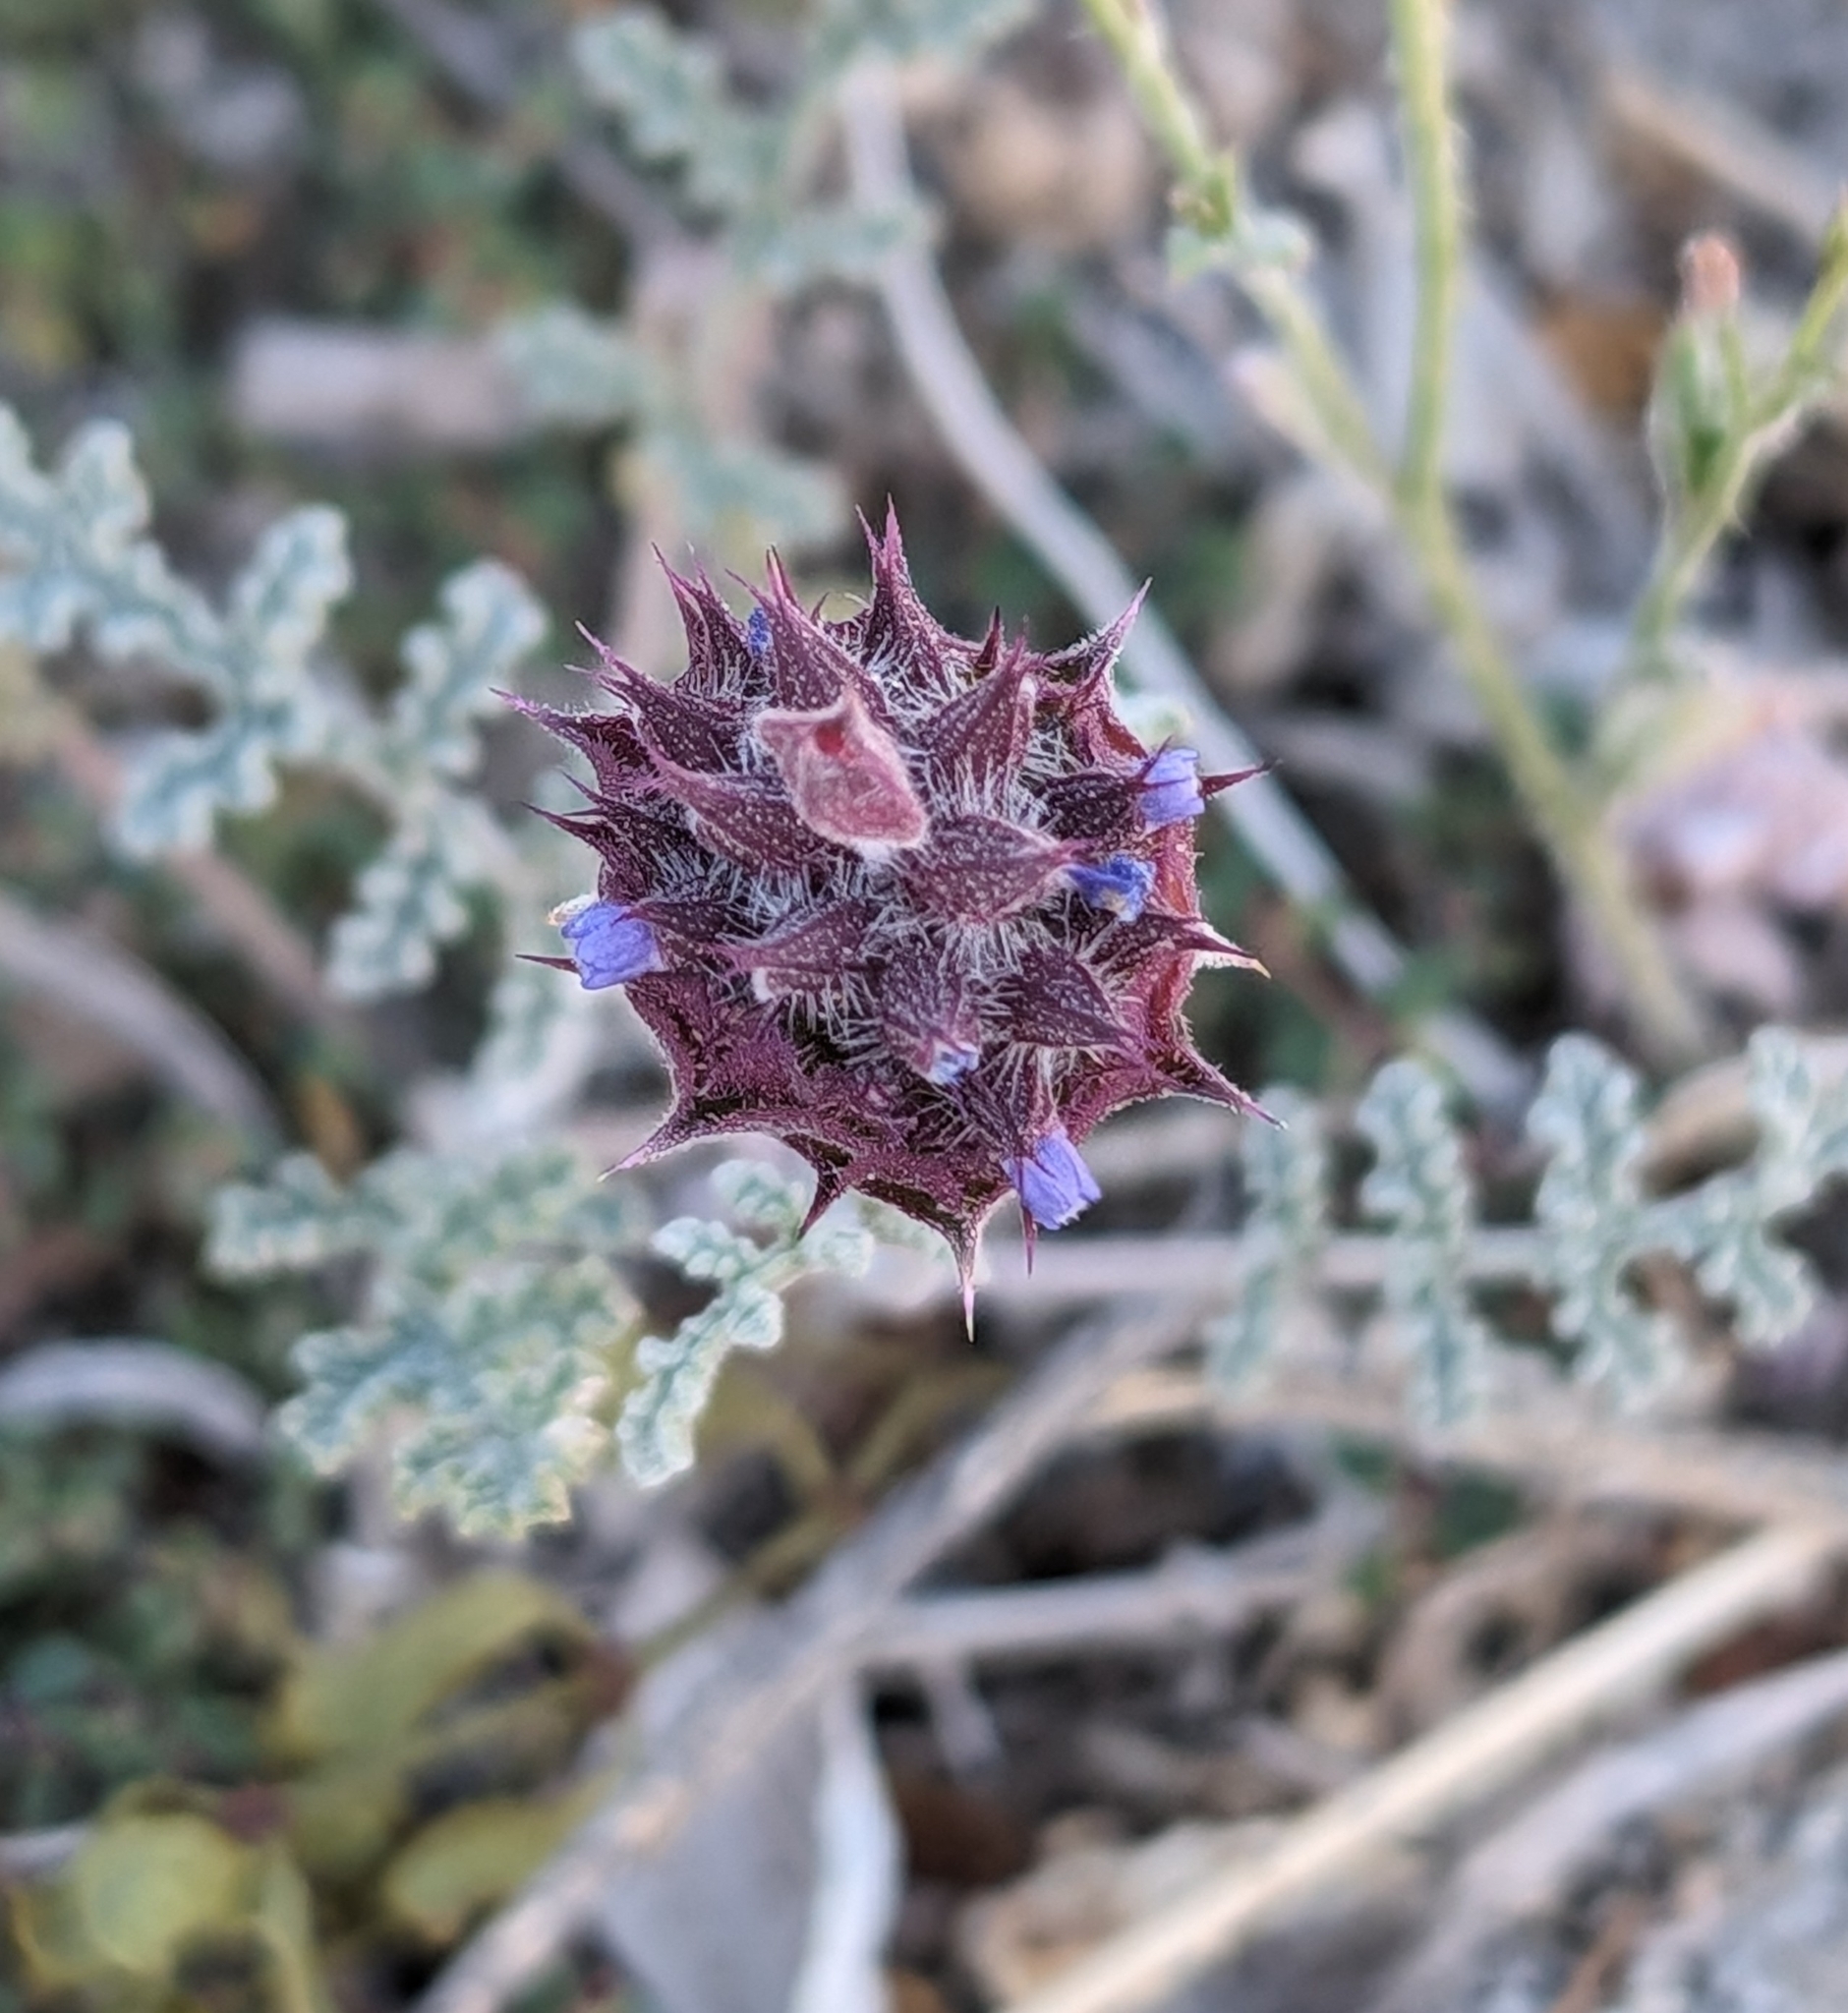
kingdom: Plantae
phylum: Tracheophyta
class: Magnoliopsida
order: Lamiales
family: Lamiaceae
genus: Salvia
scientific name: Salvia columbariae
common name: Chia
